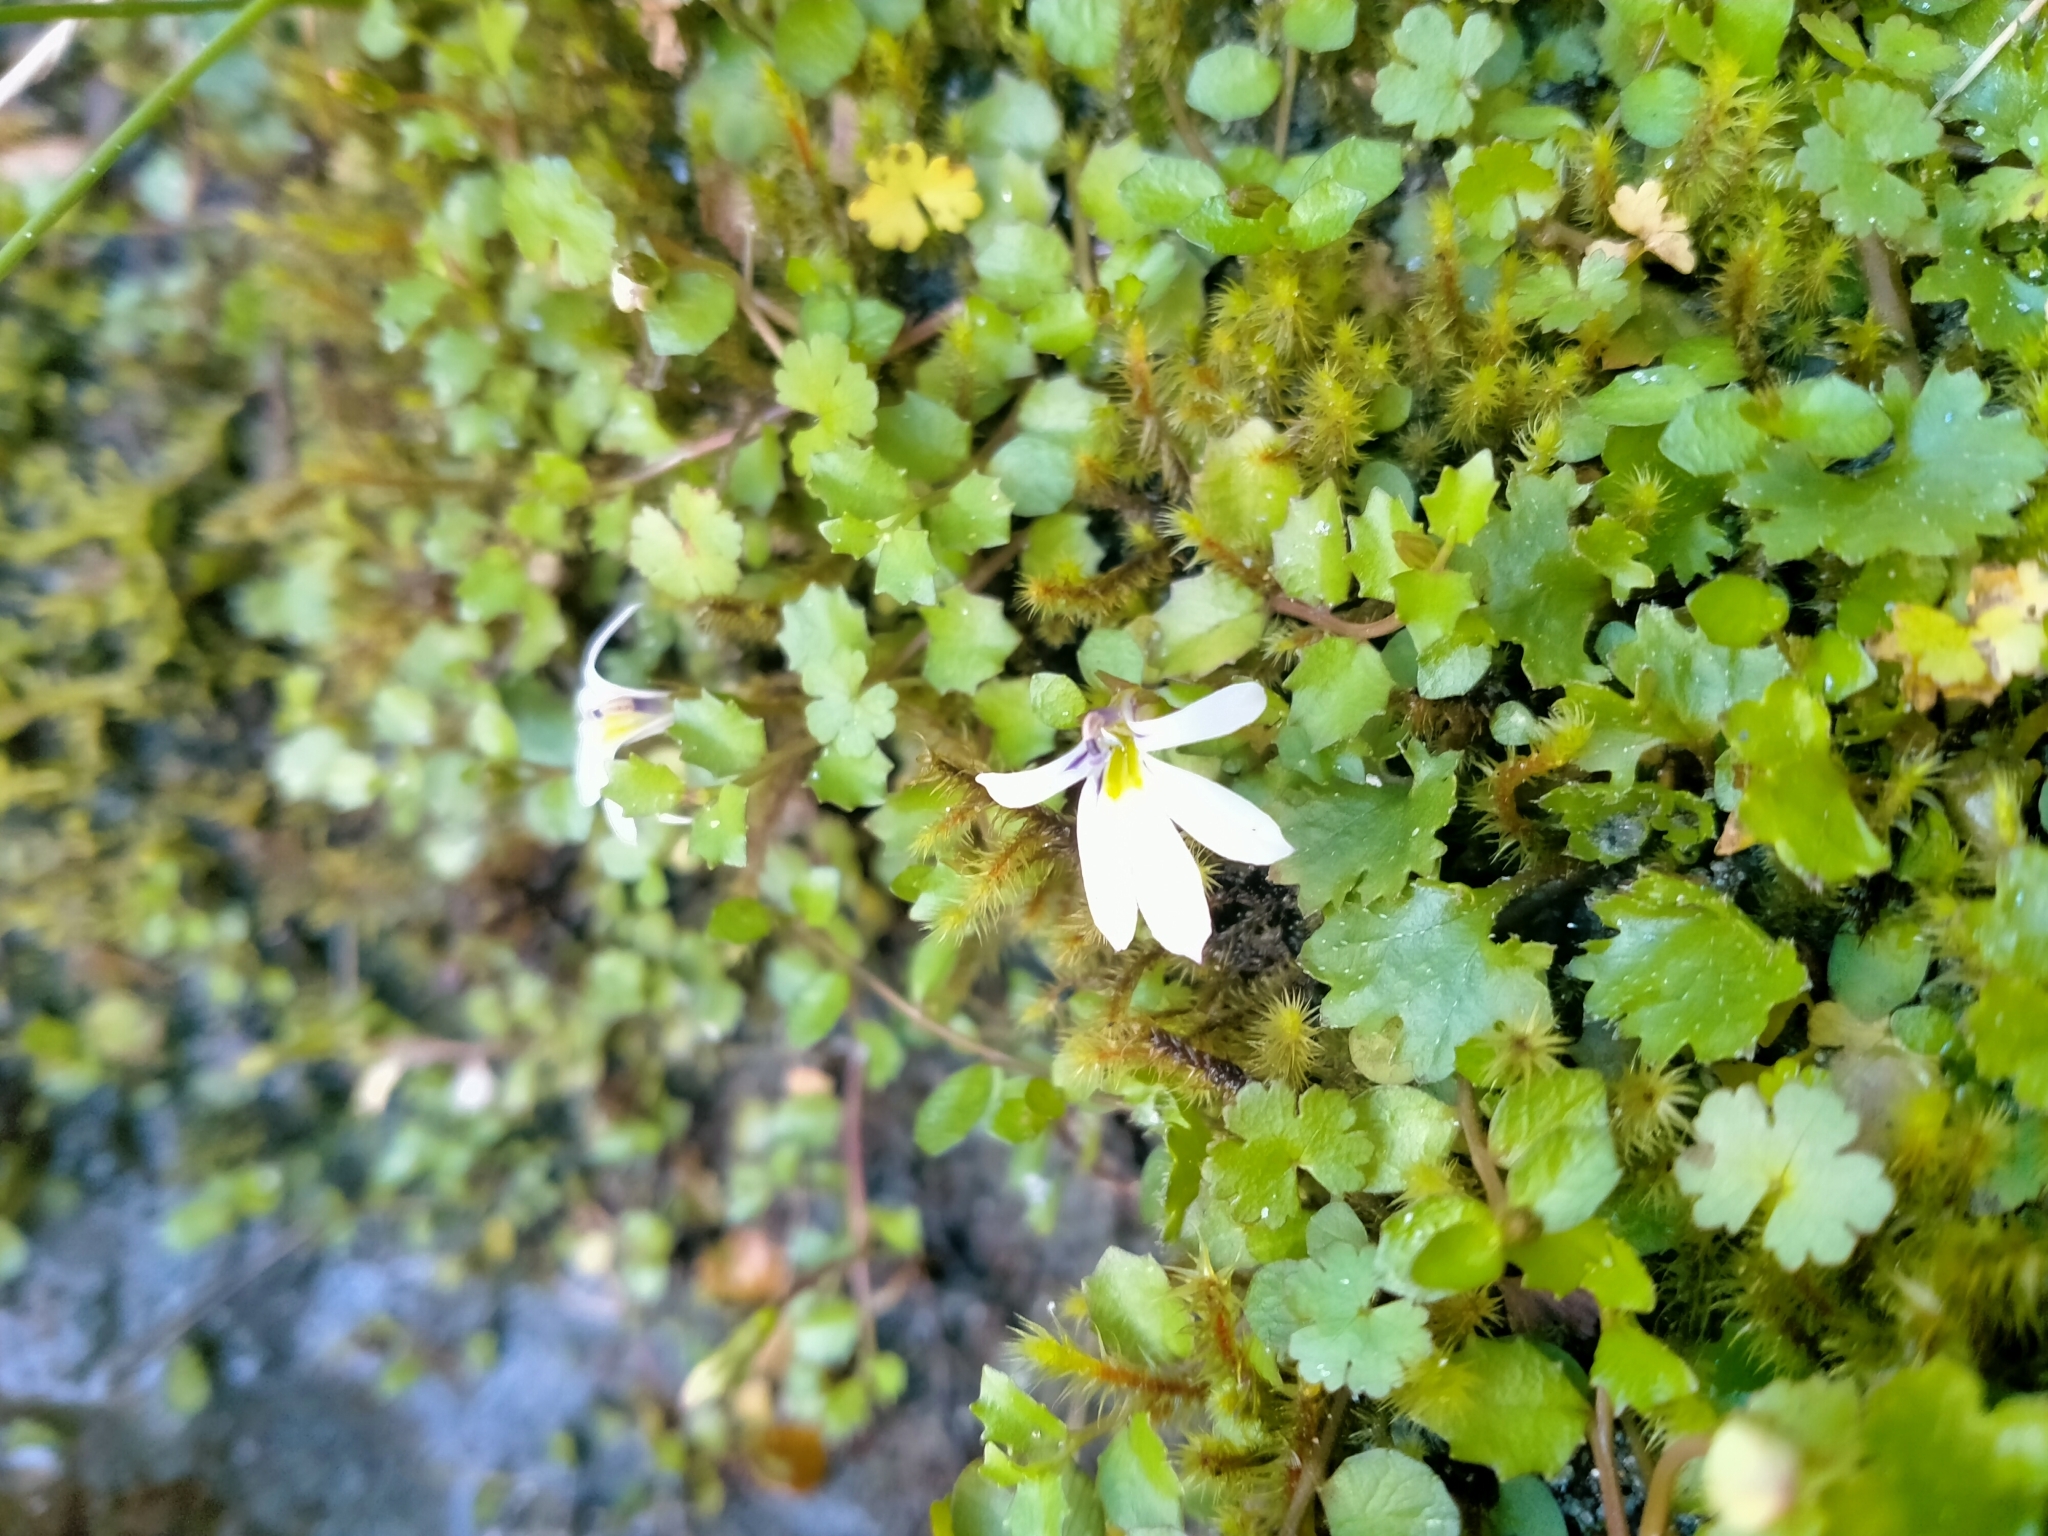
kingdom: Plantae
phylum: Tracheophyta
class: Magnoliopsida
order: Asterales
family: Campanulaceae
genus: Lobelia
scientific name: Lobelia angulata
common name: Lawn lobelia
